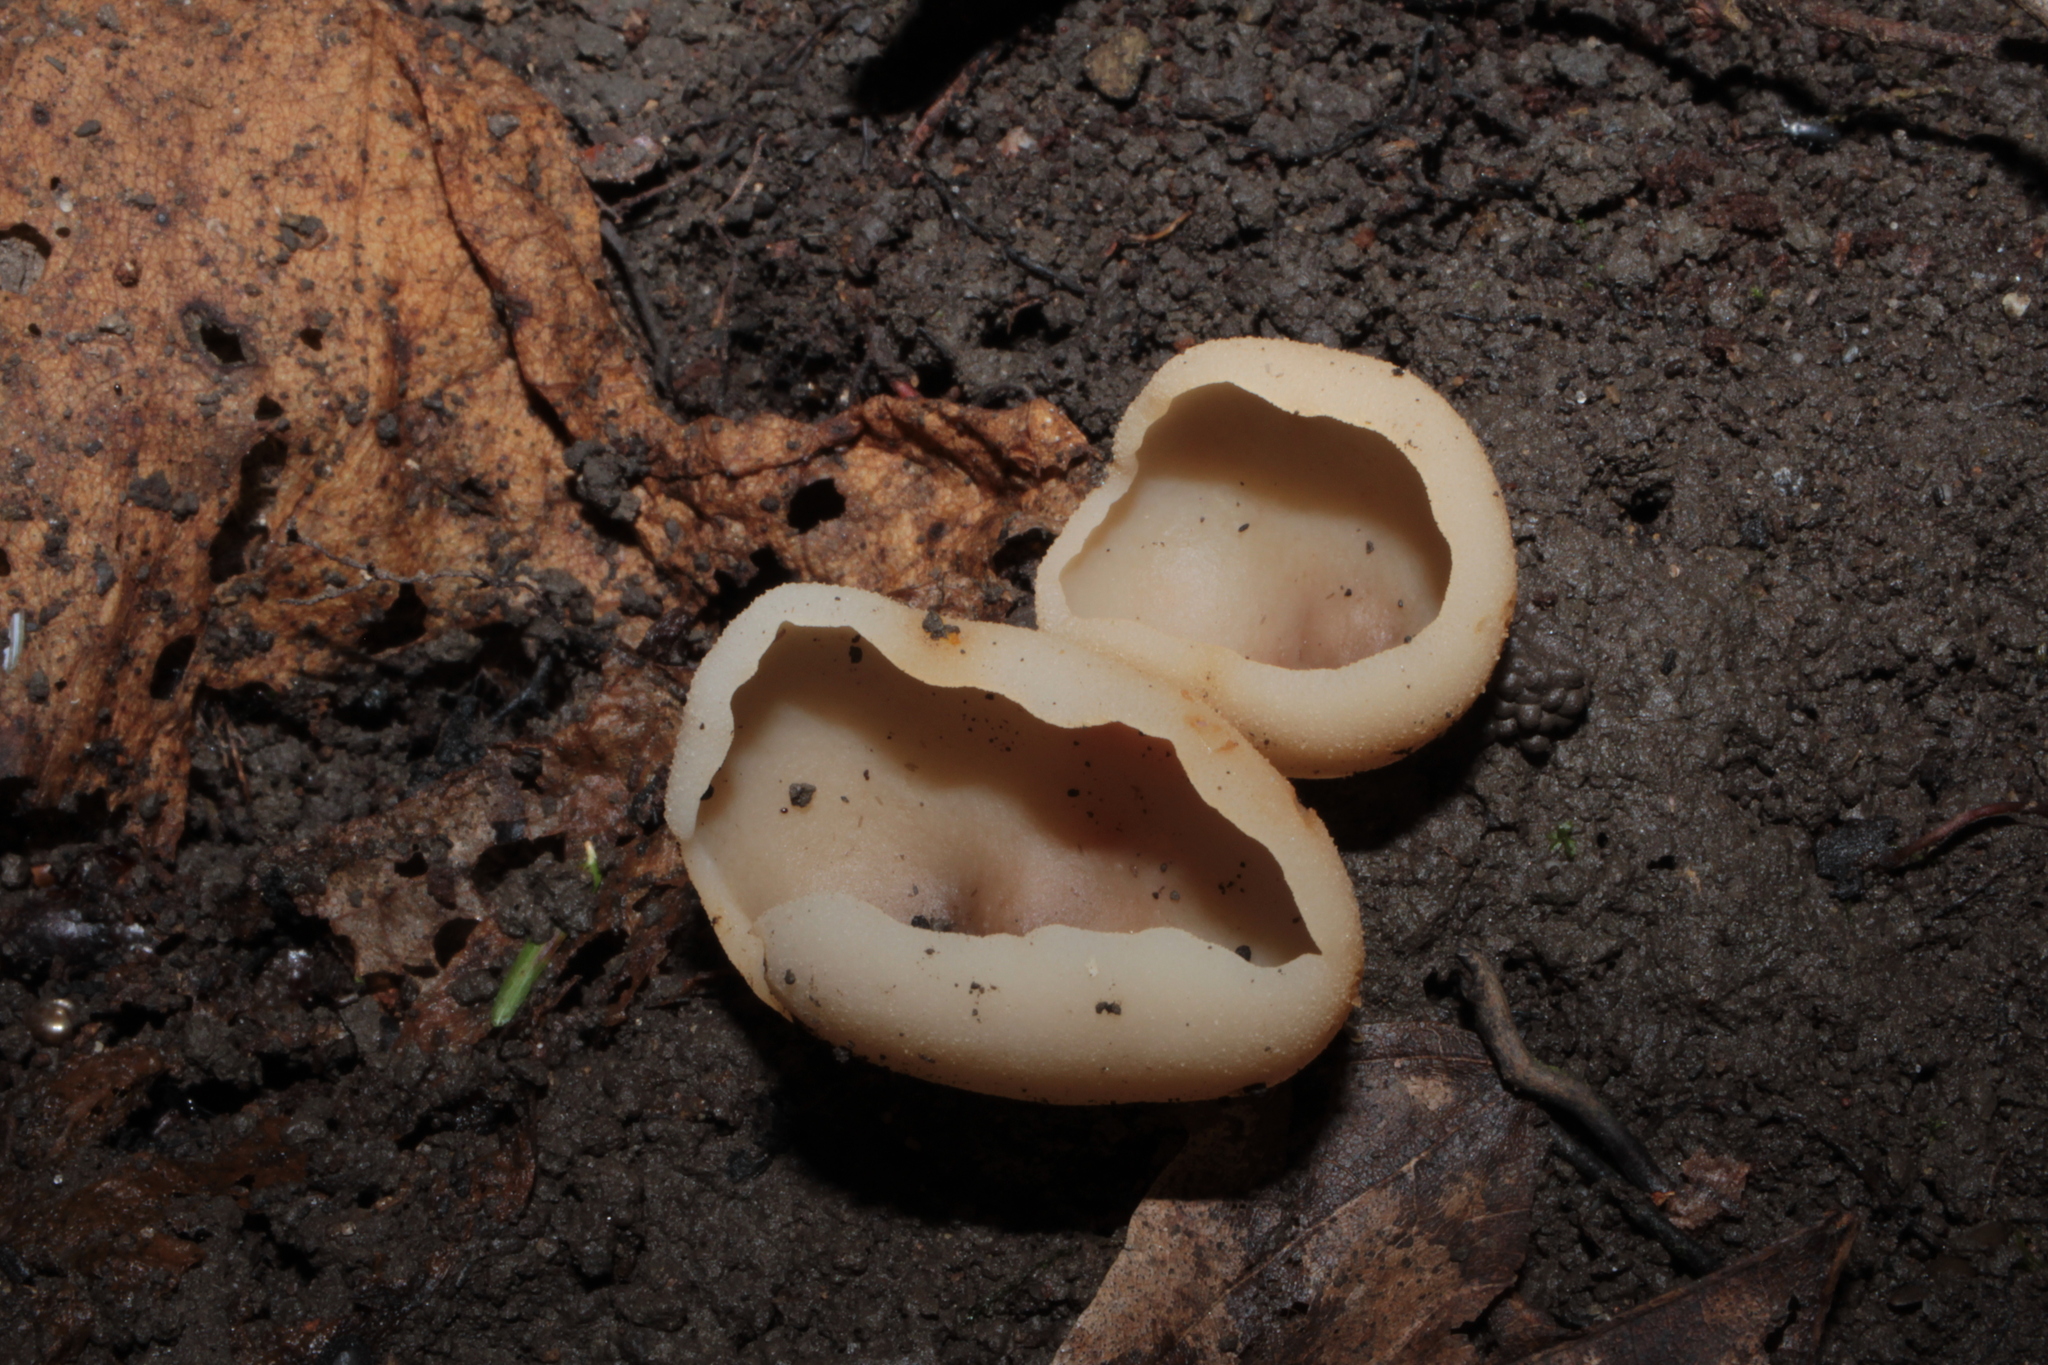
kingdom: Fungi
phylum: Ascomycota
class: Pezizomycetes
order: Pezizales
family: Pezizaceae
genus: Paragalactinia
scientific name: Paragalactinia succosa
